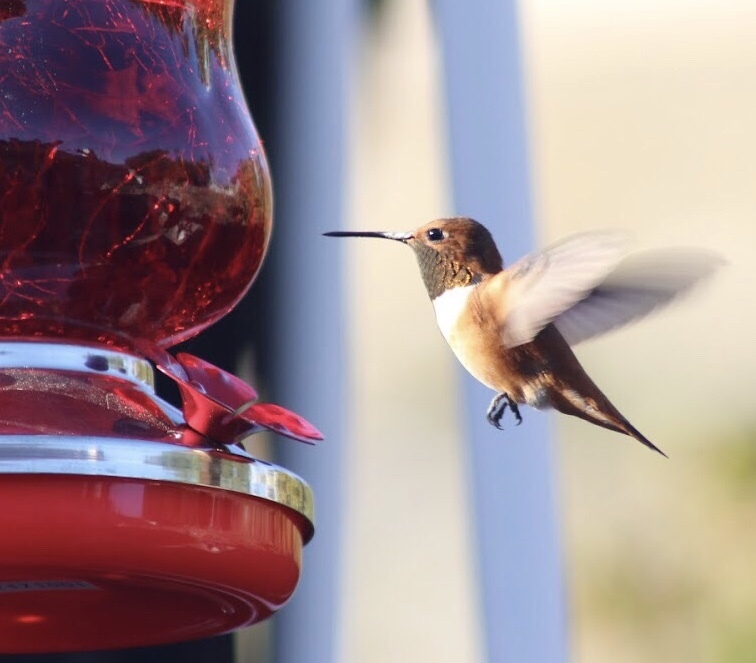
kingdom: Animalia
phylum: Chordata
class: Aves
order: Apodiformes
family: Trochilidae
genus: Selasphorus
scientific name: Selasphorus rufus
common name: Rufous hummingbird
